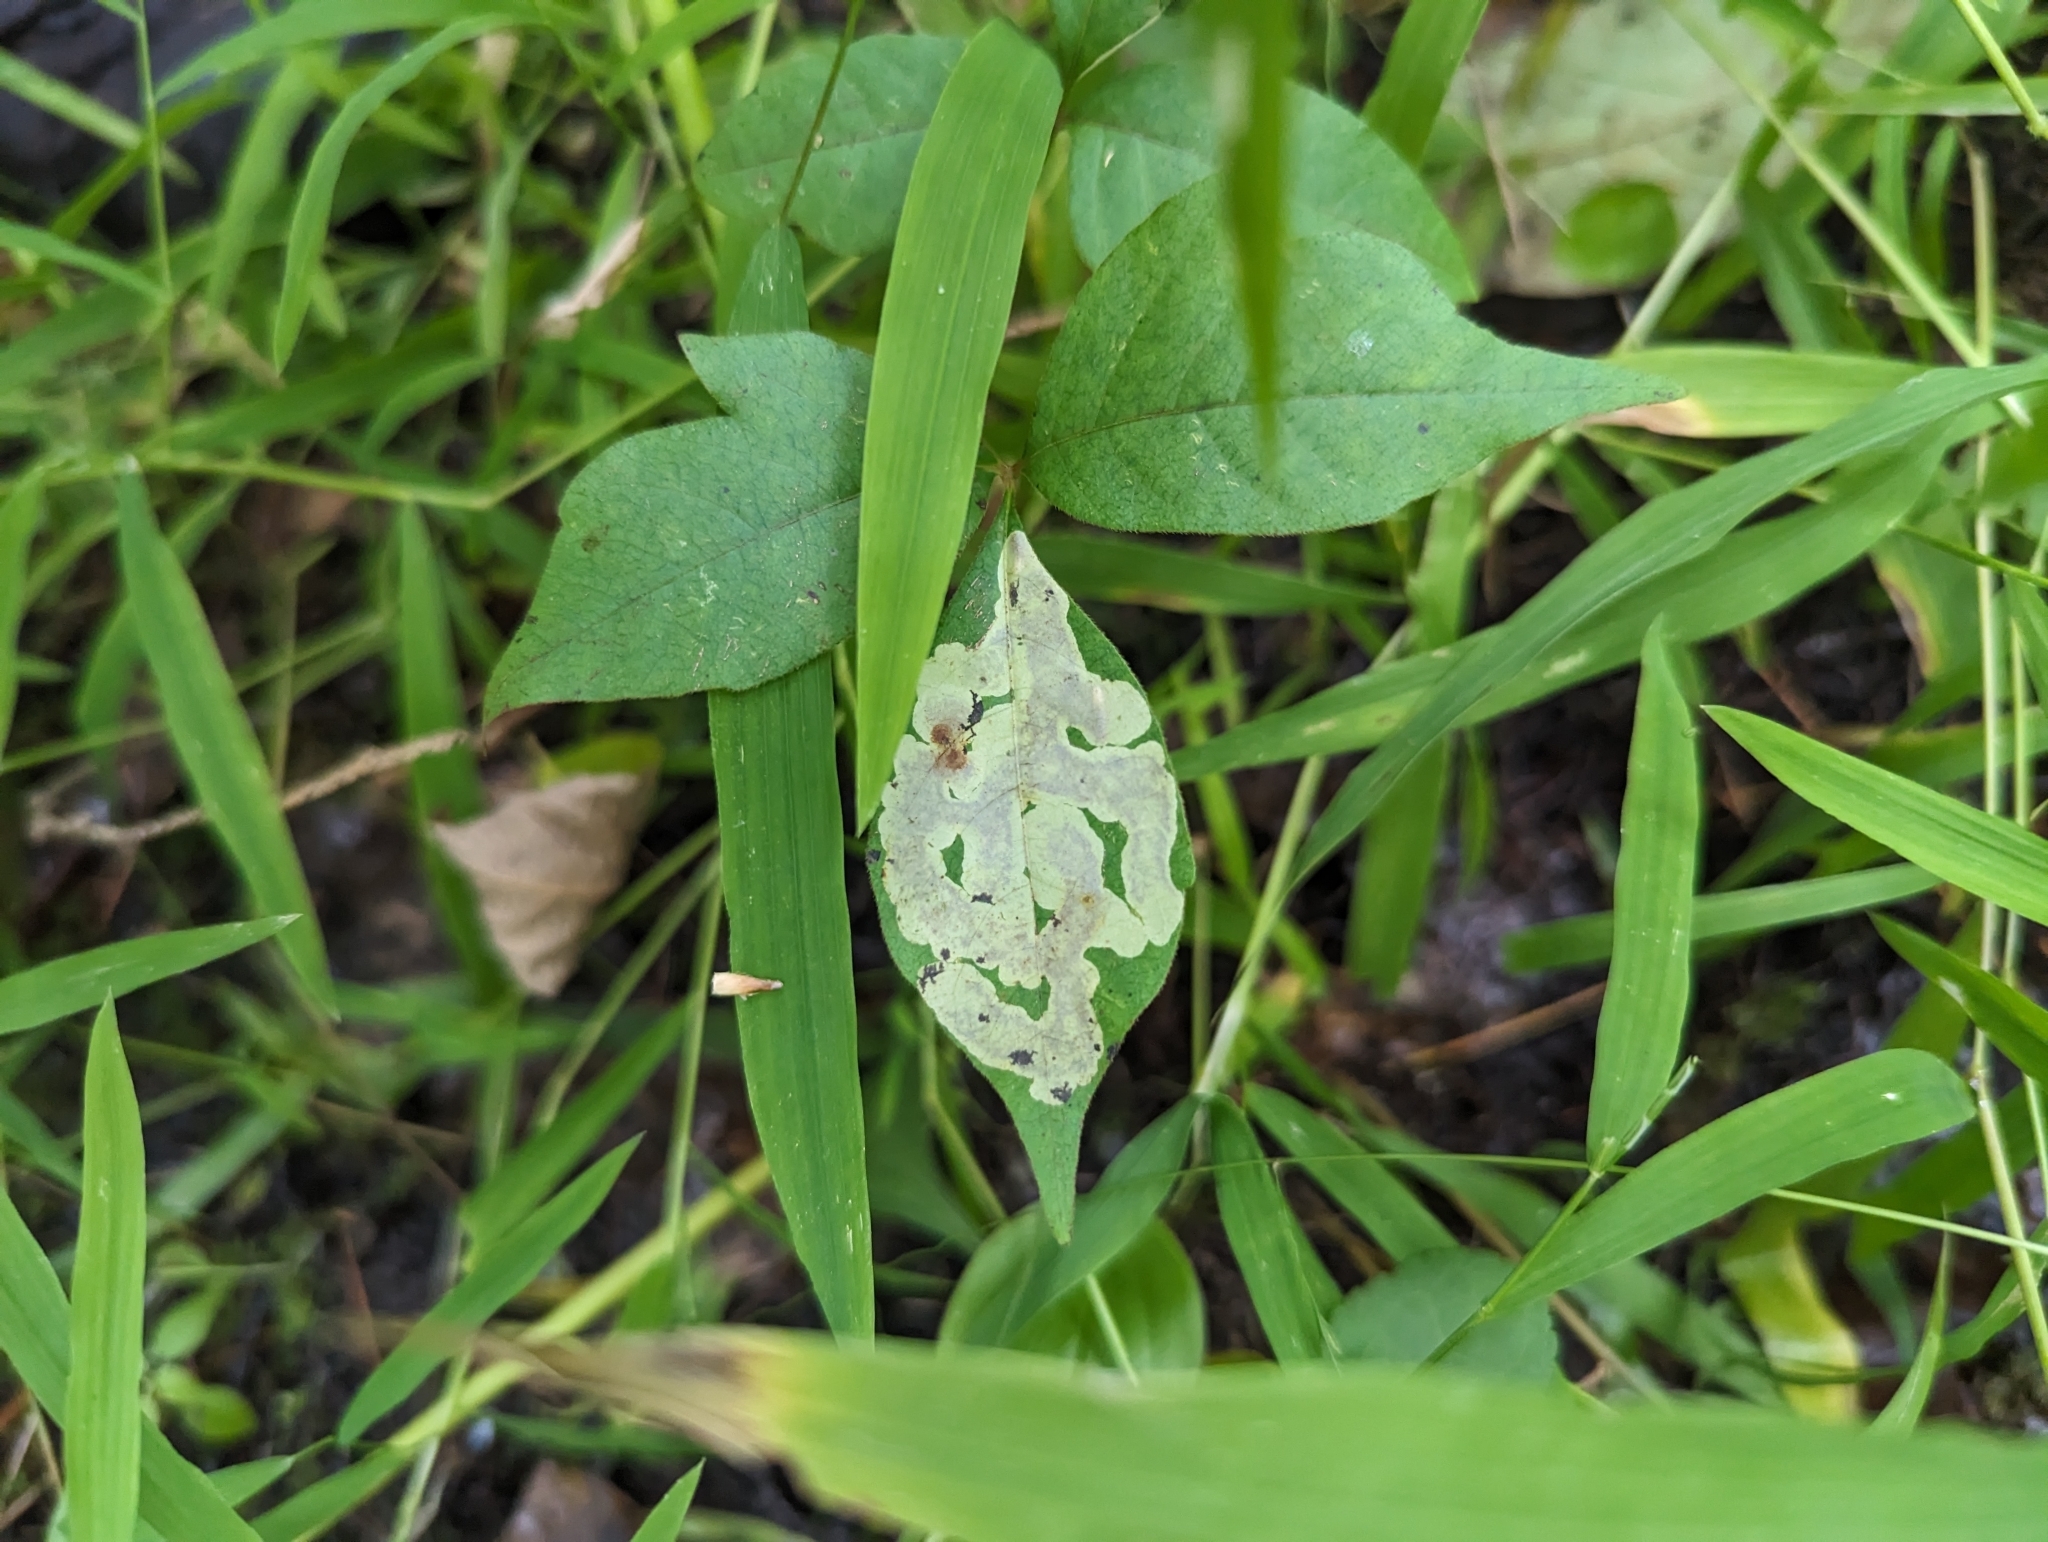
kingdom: Animalia
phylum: Arthropoda
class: Insecta
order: Lepidoptera
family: Gracillariidae
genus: Cameraria
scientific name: Cameraria guttifinitella
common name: Poison ivy leaf-miner moth
